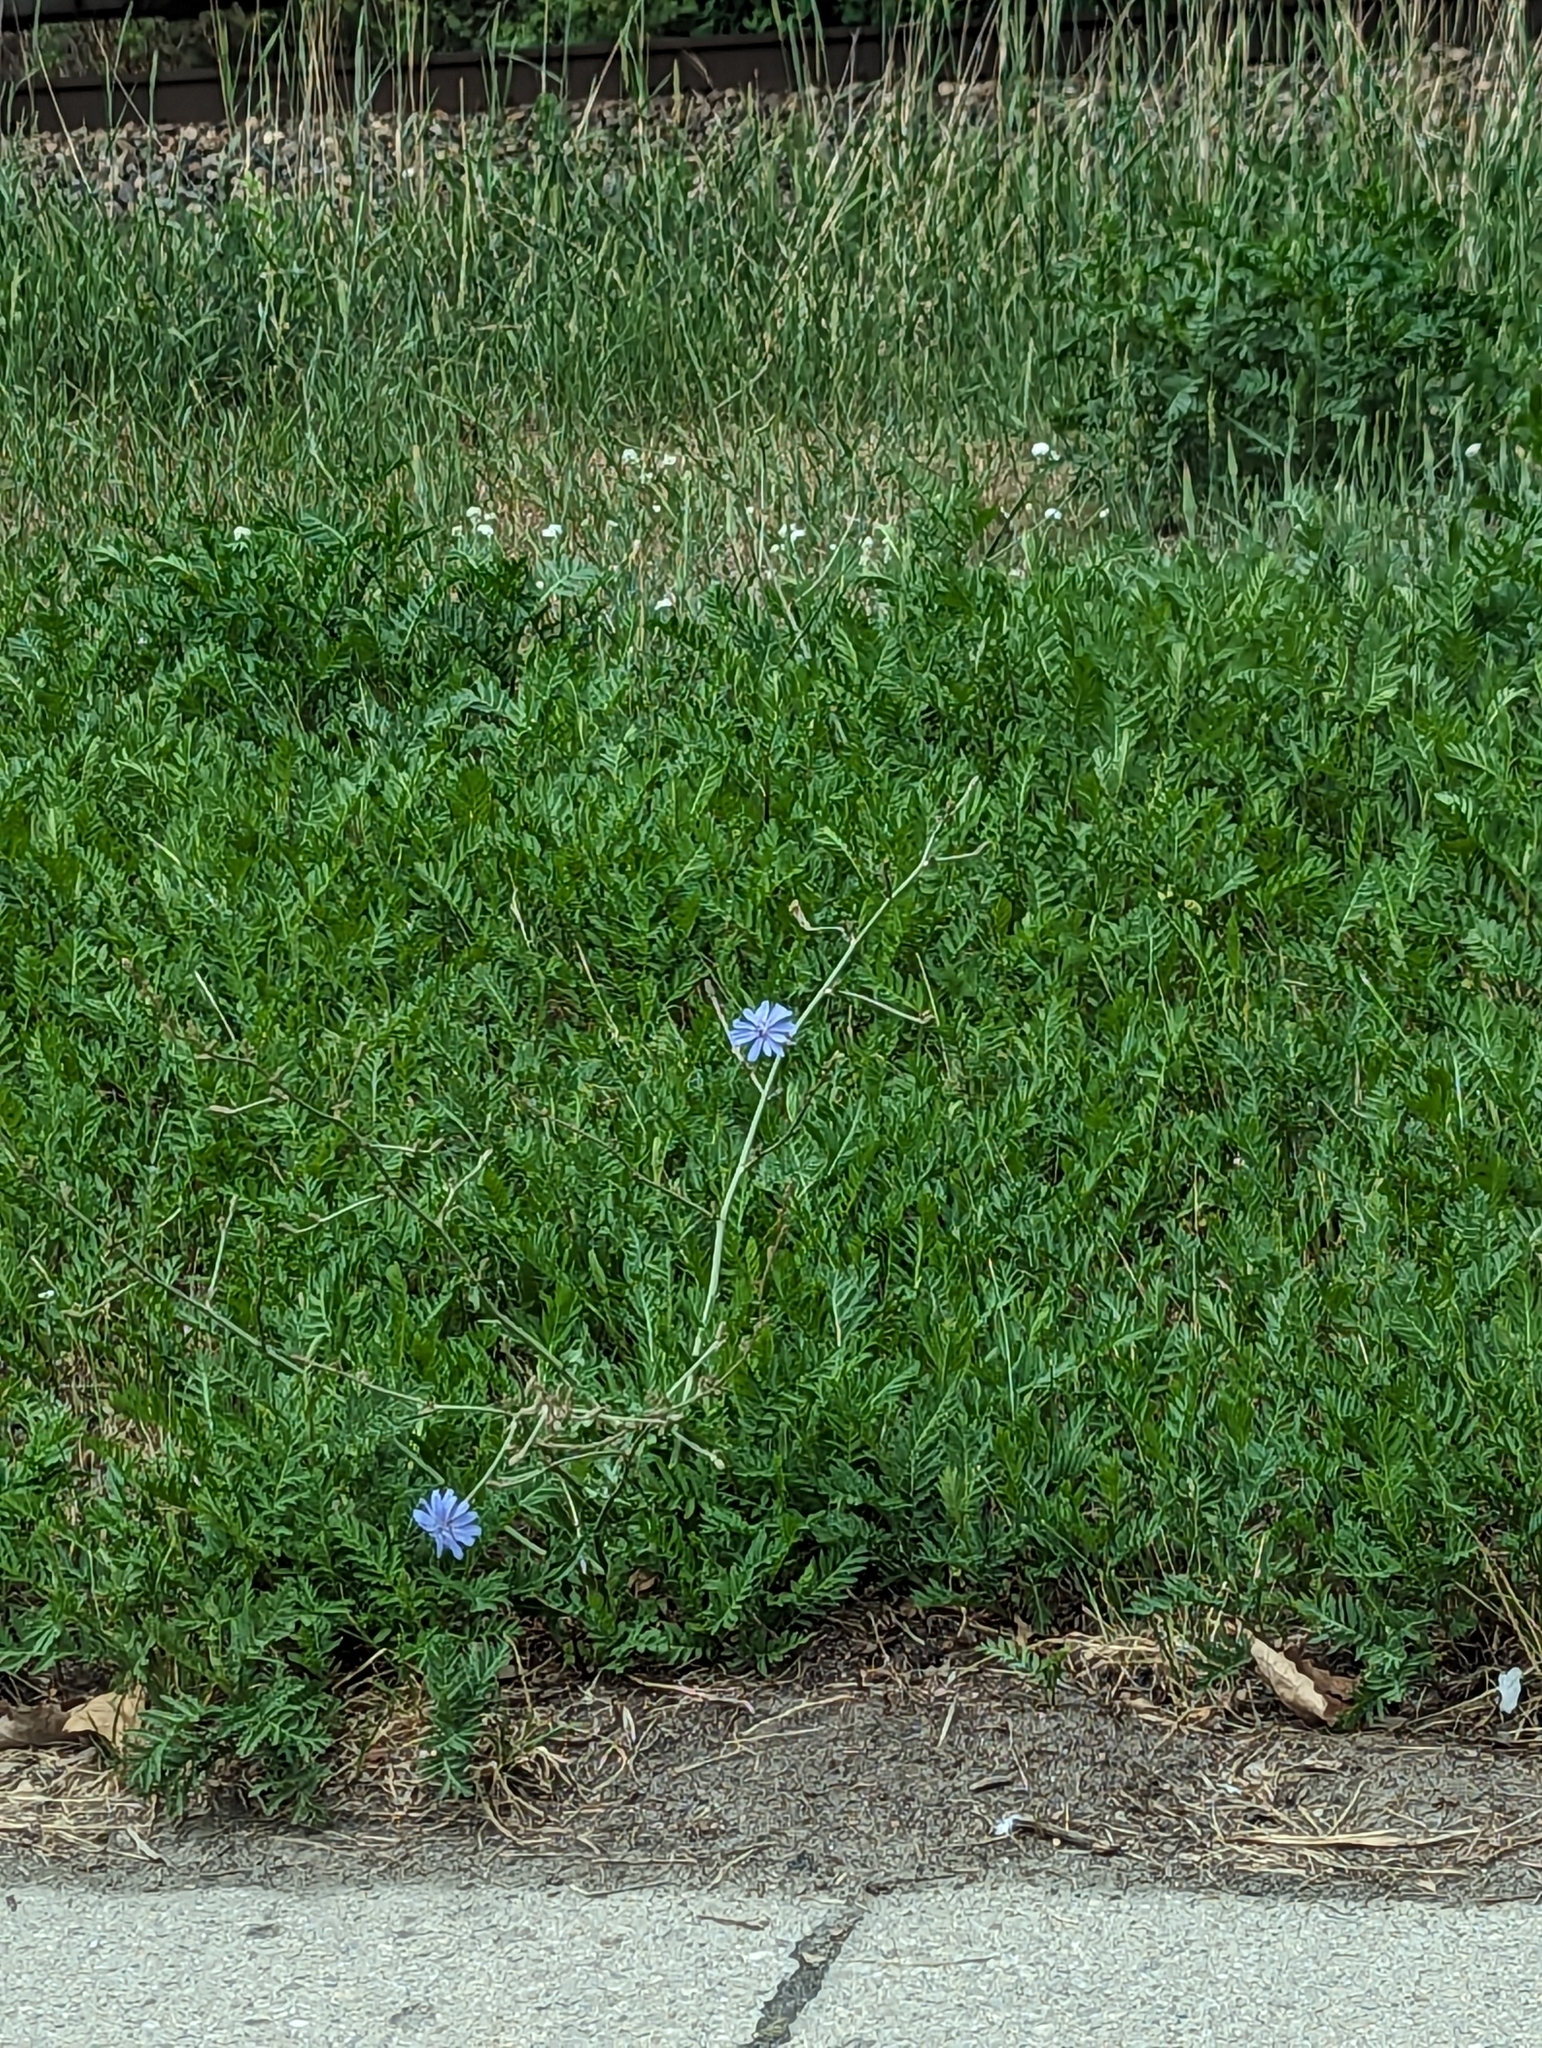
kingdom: Plantae
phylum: Tracheophyta
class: Magnoliopsida
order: Asterales
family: Asteraceae
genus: Cichorium
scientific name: Cichorium intybus
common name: Chicory
